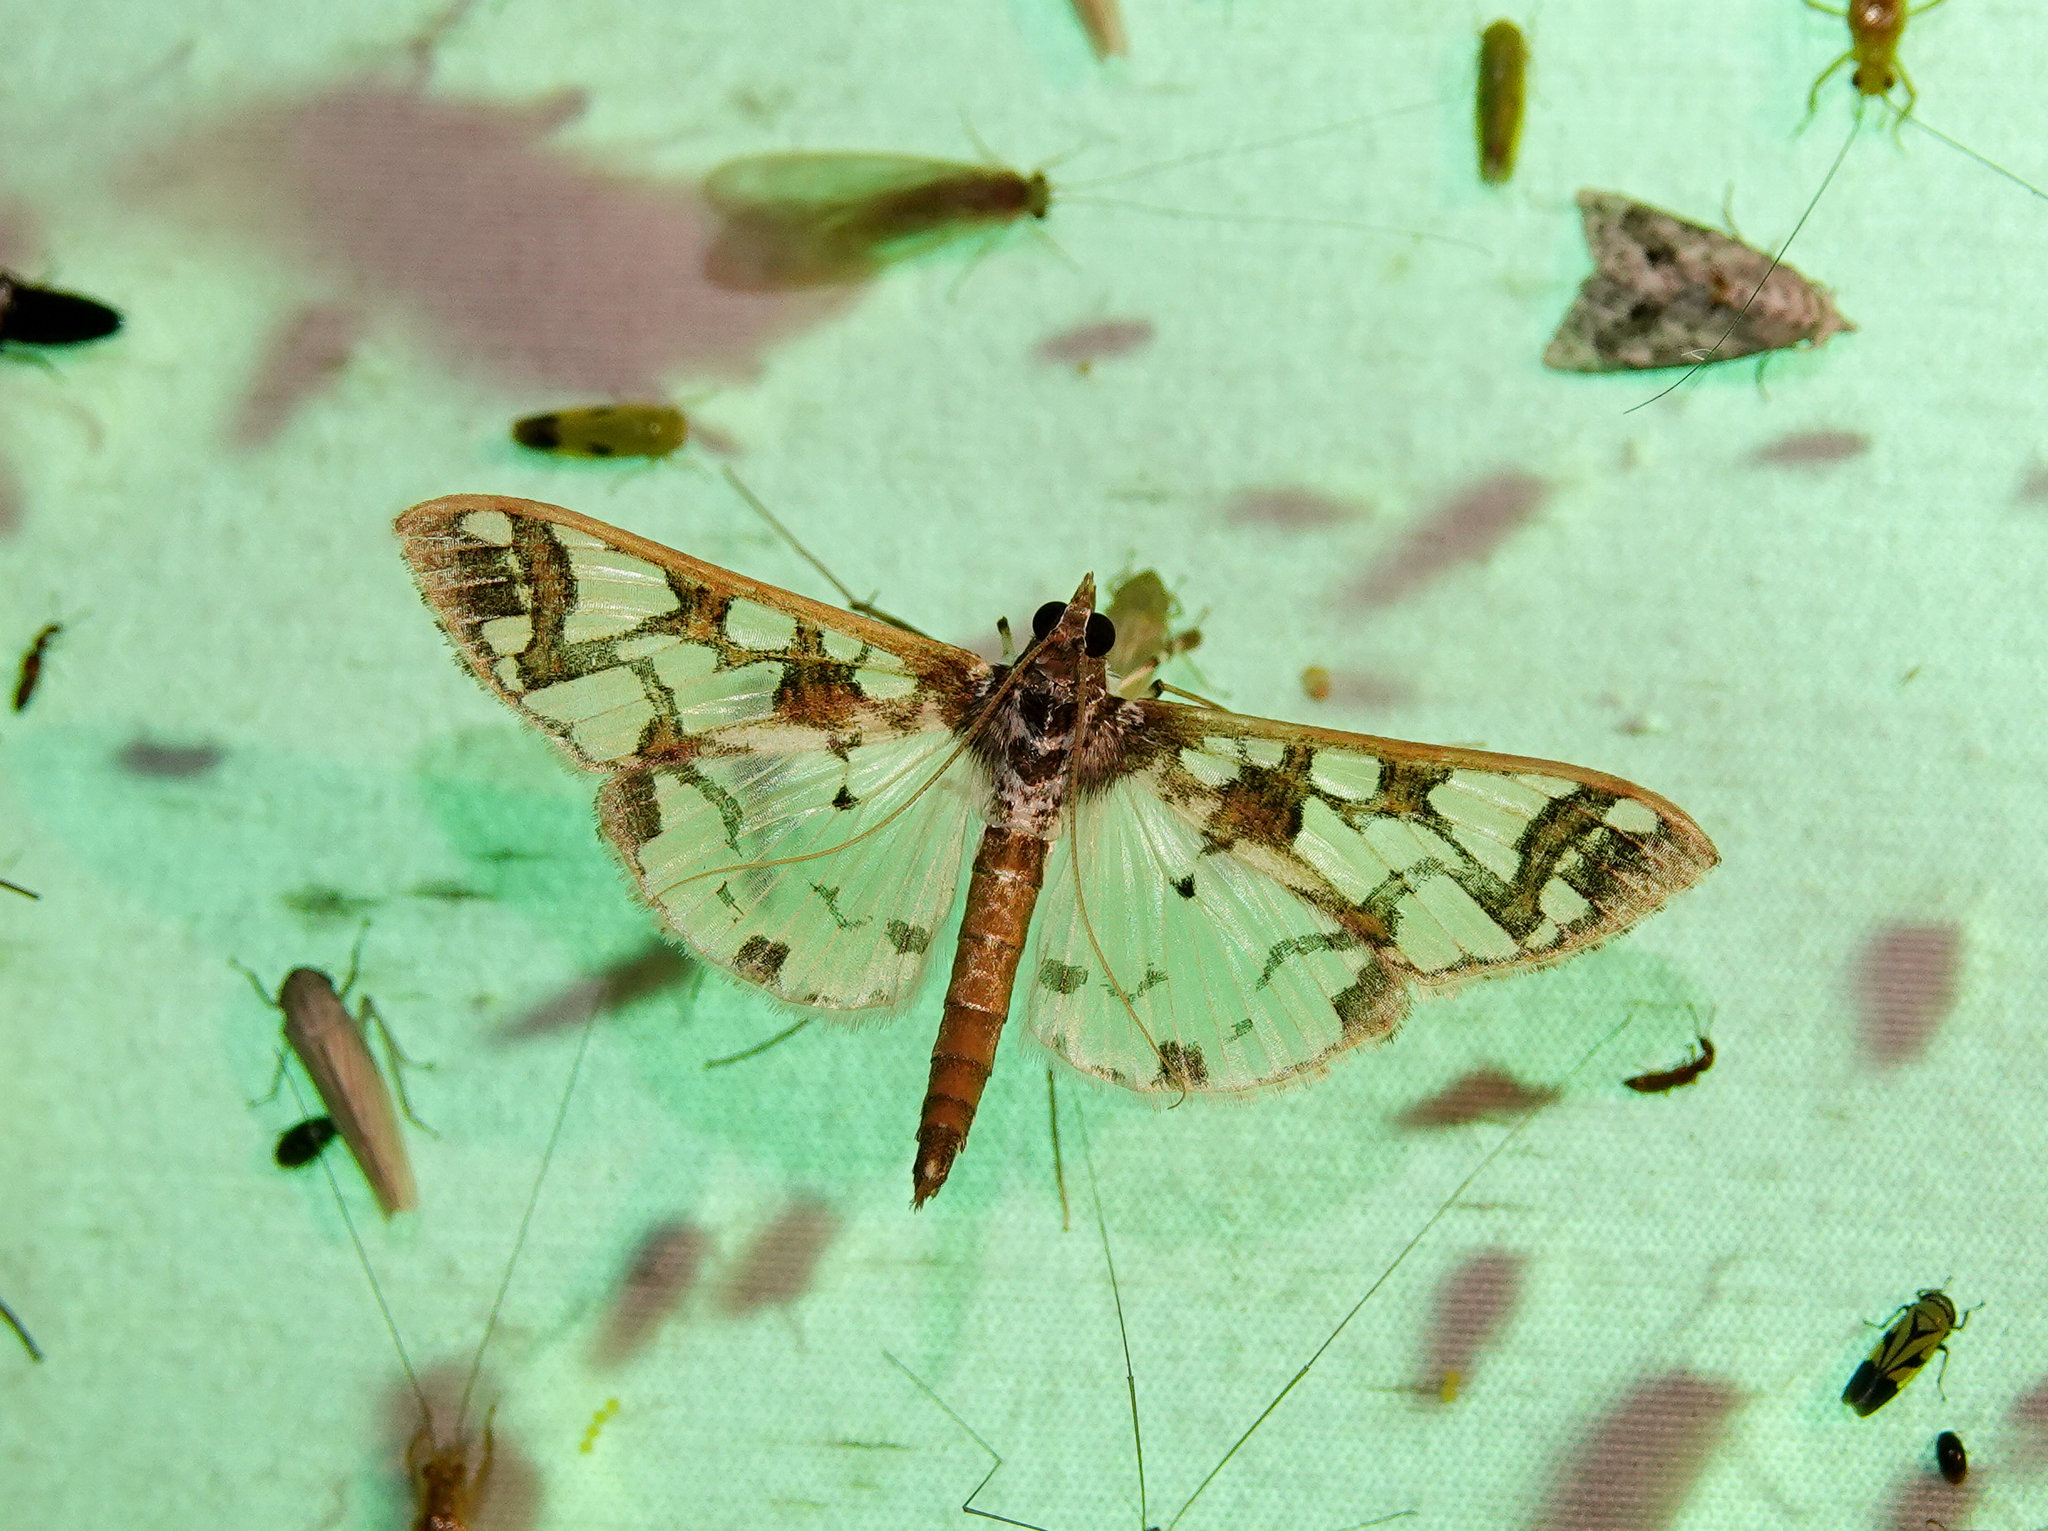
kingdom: Animalia
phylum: Arthropoda
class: Insecta
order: Lepidoptera
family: Crambidae
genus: Polythlipta
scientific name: Polythlipta liquidalis
